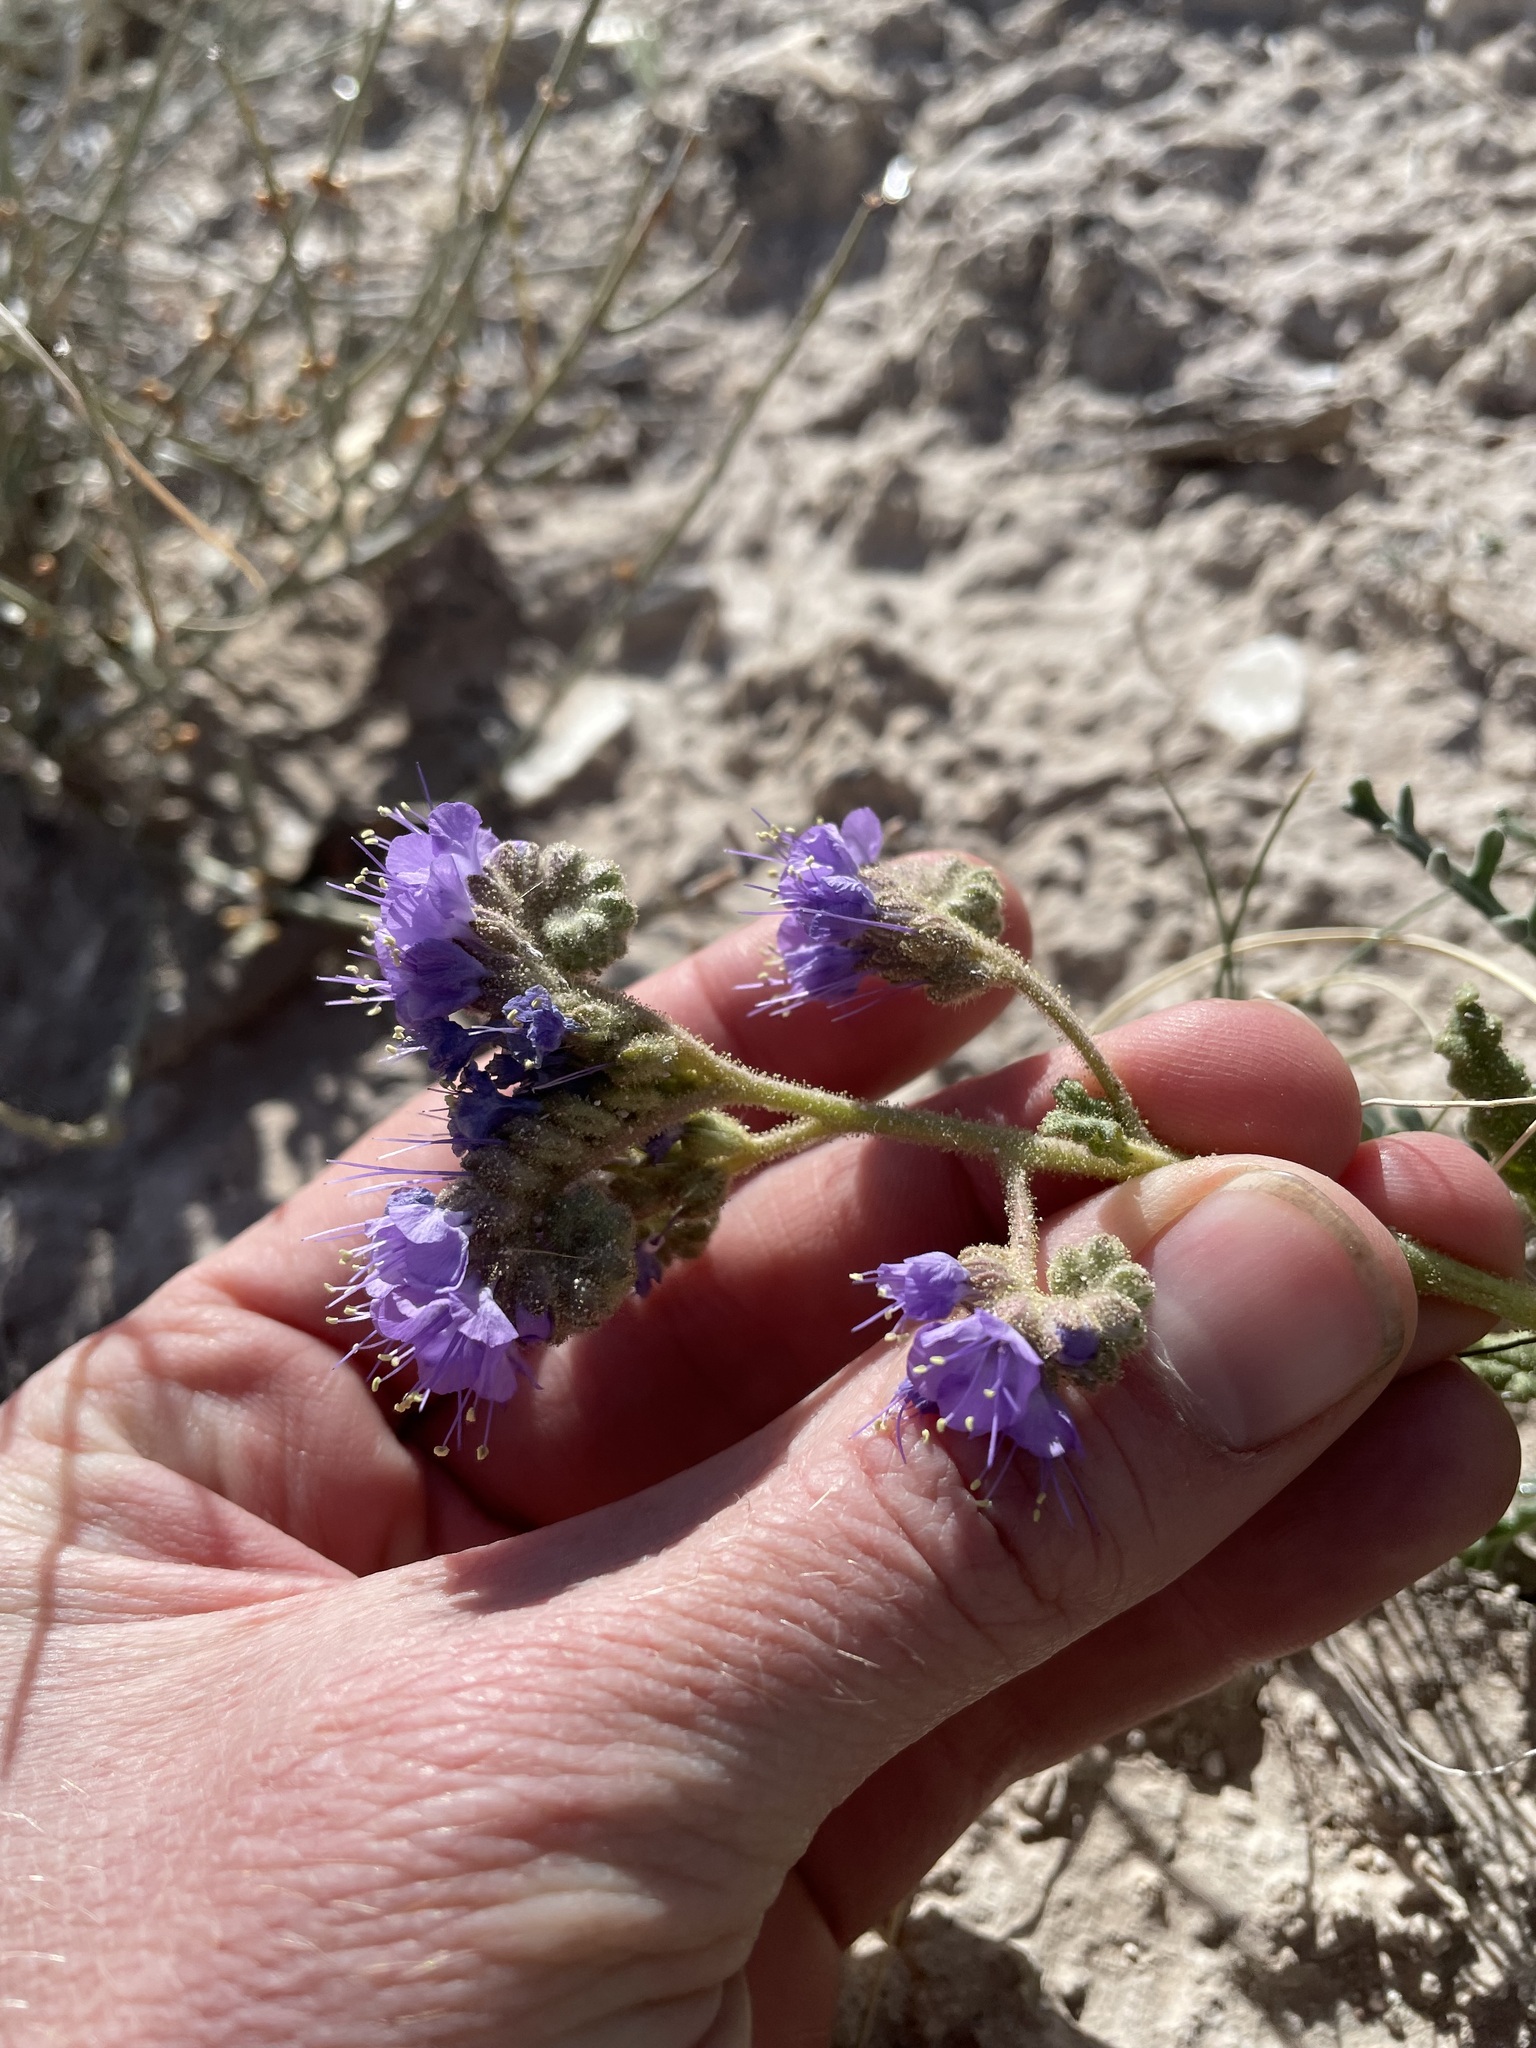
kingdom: Plantae
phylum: Tracheophyta
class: Magnoliopsida
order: Boraginales
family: Hydrophyllaceae
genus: Phacelia
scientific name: Phacelia crenulata
